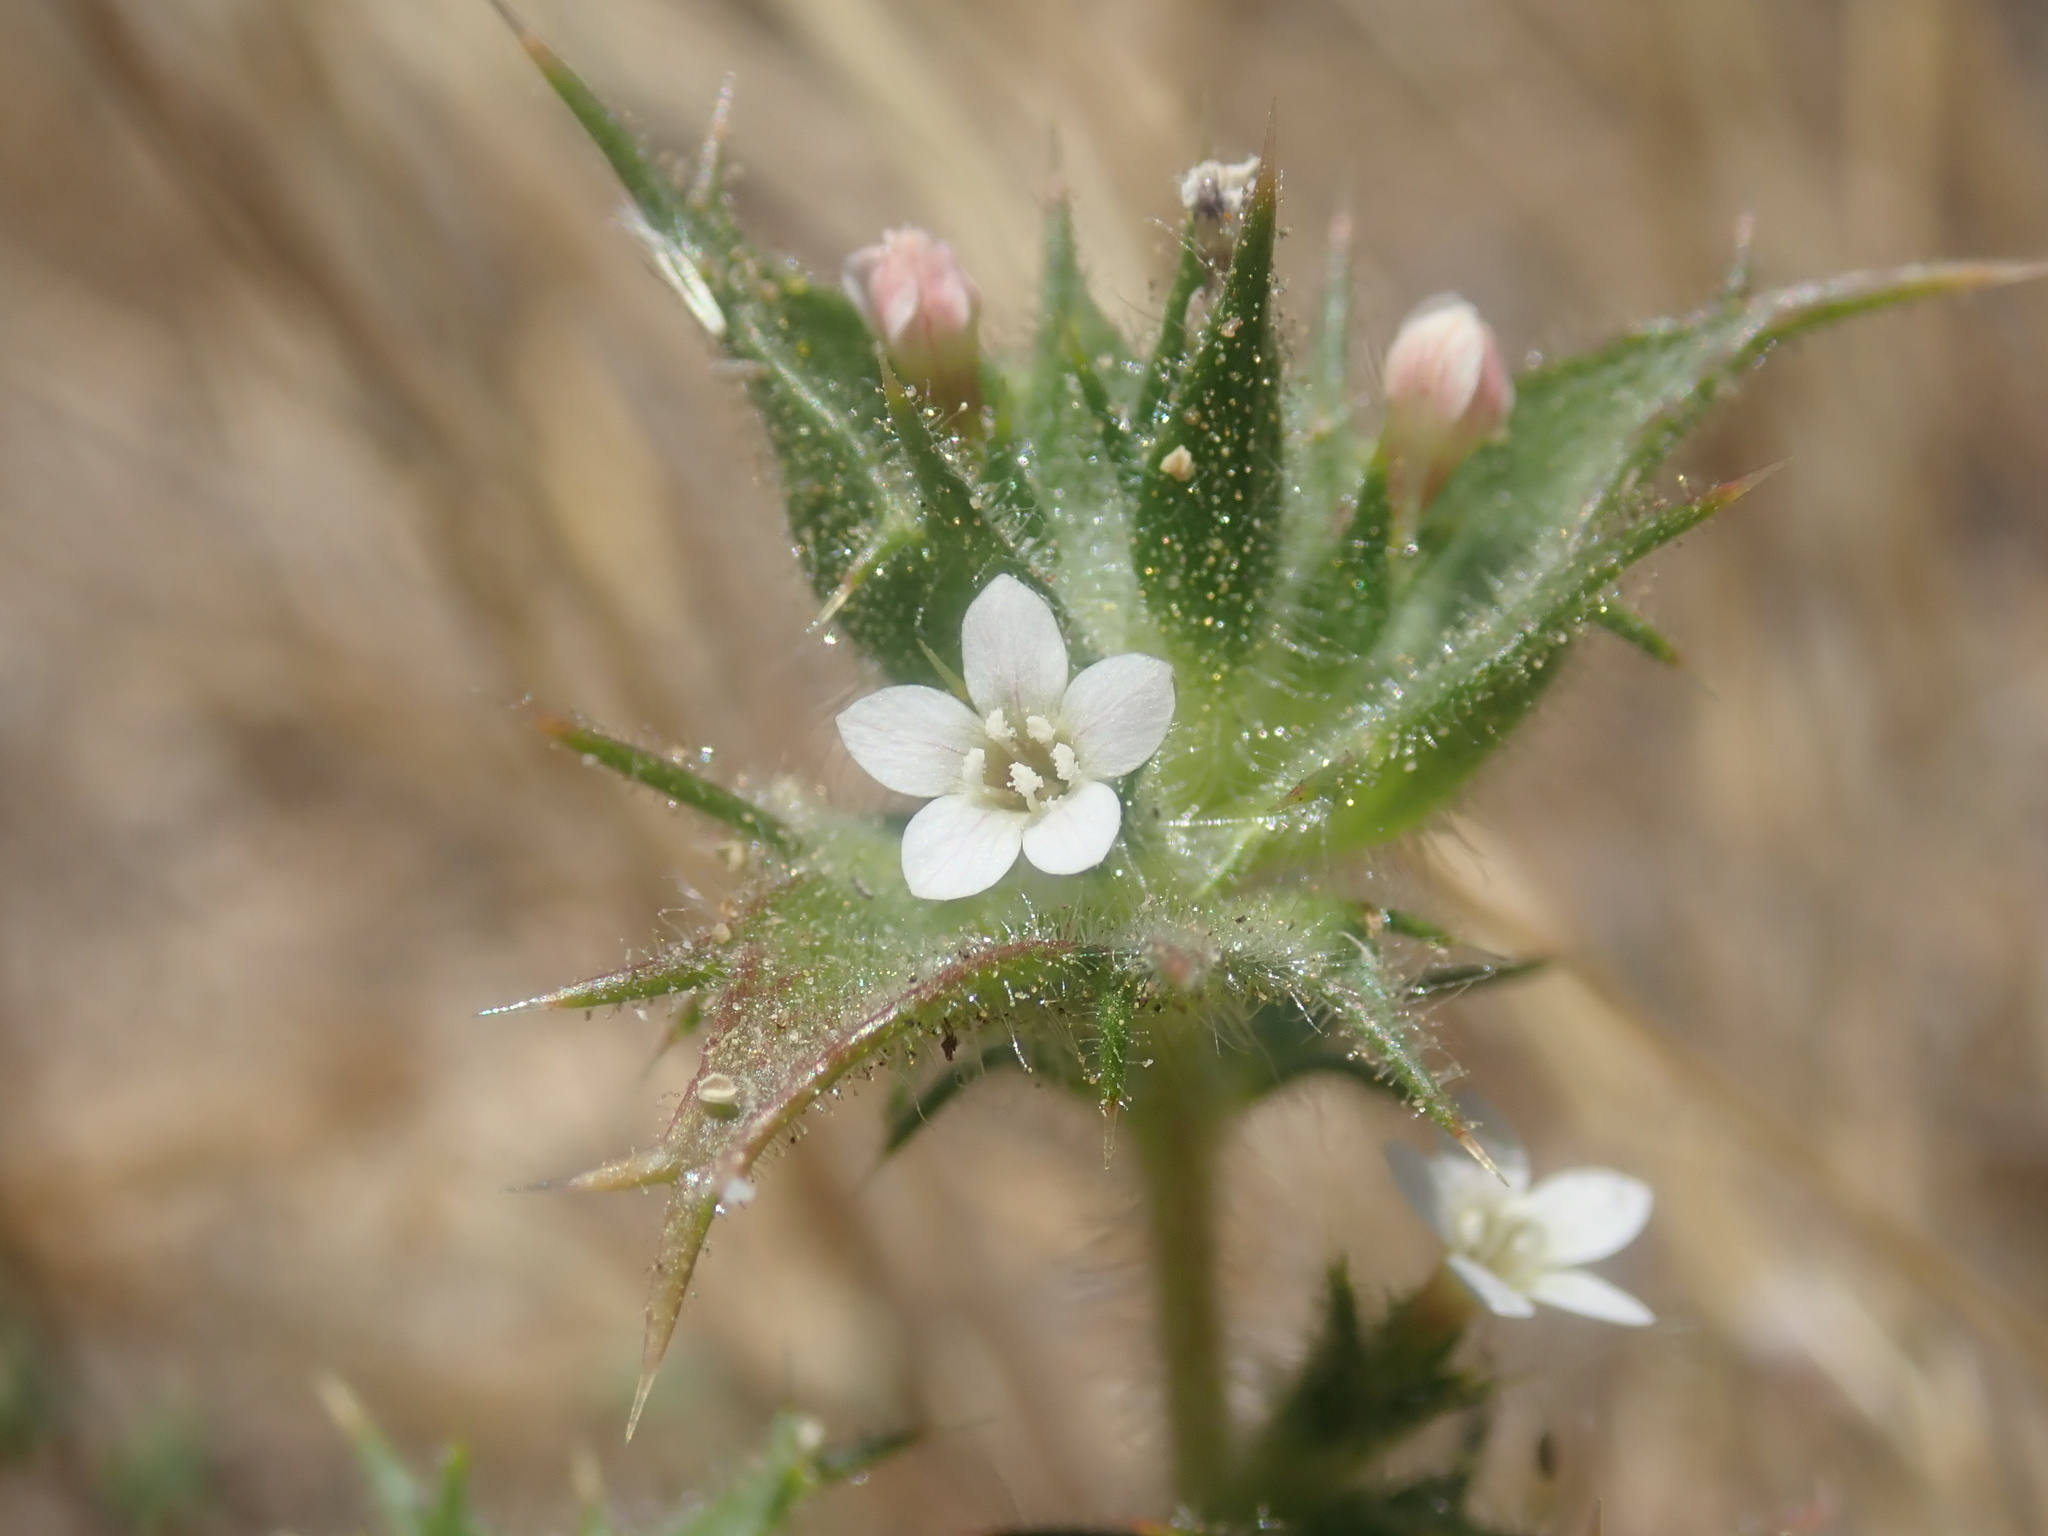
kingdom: Plantae
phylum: Tracheophyta
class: Magnoliopsida
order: Ericales
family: Polemoniaceae
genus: Navarretia
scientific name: Navarretia atractyloides
